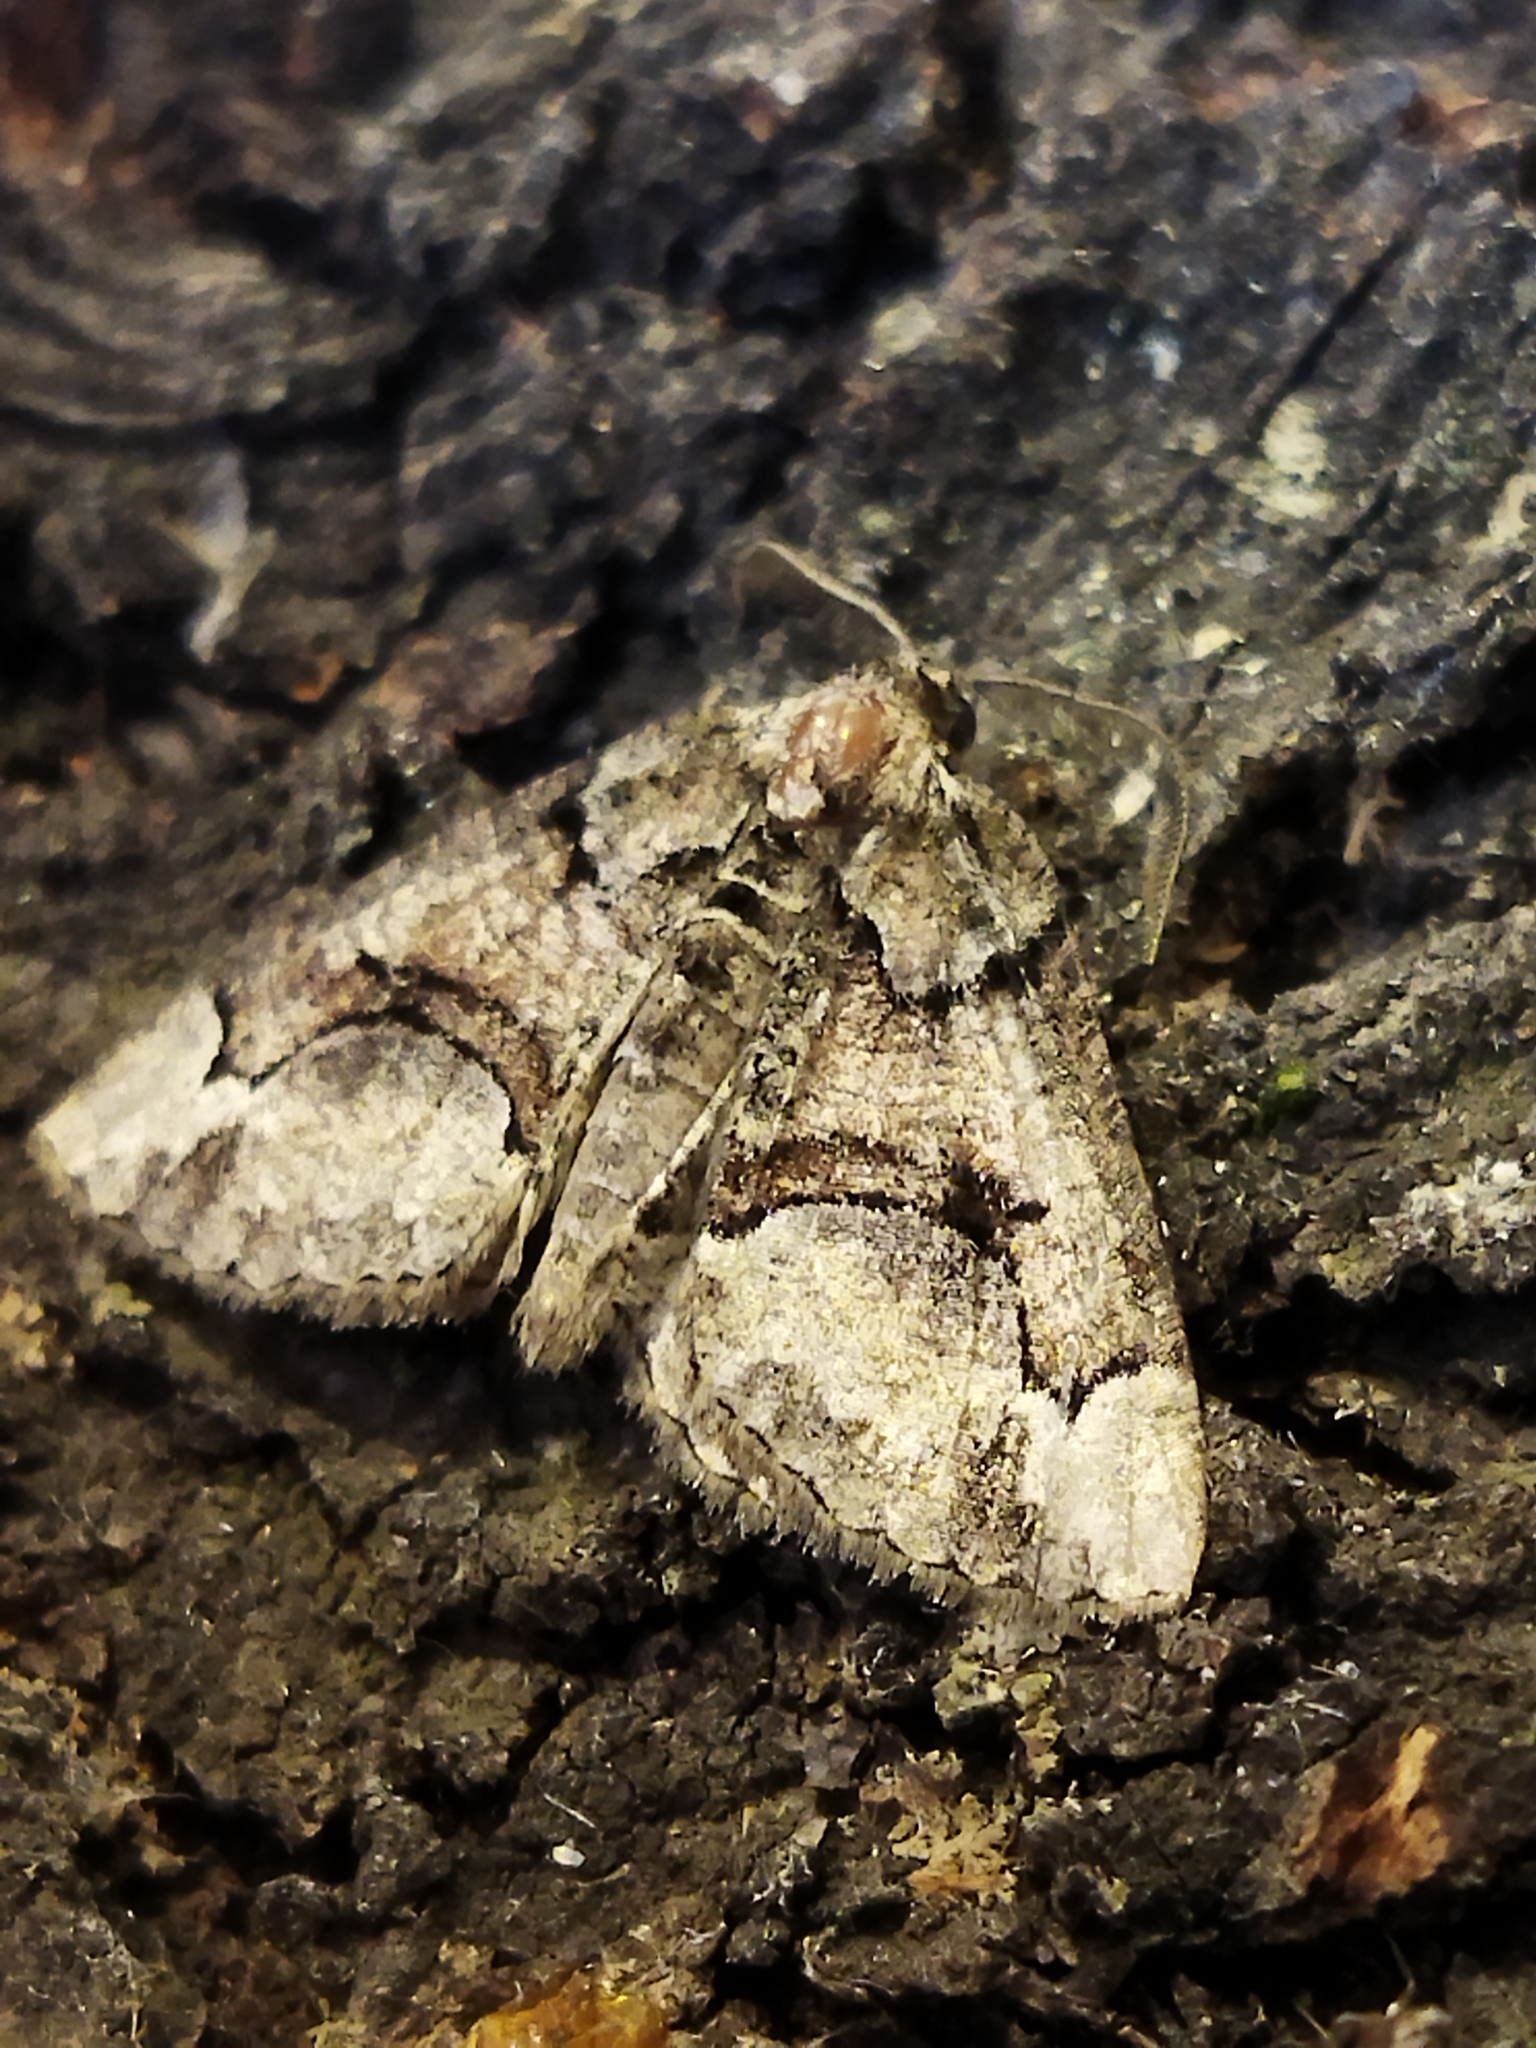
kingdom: Animalia
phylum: Arthropoda
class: Insecta
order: Lepidoptera
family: Geometridae
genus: Asovia
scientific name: Asovia maeoticaria
